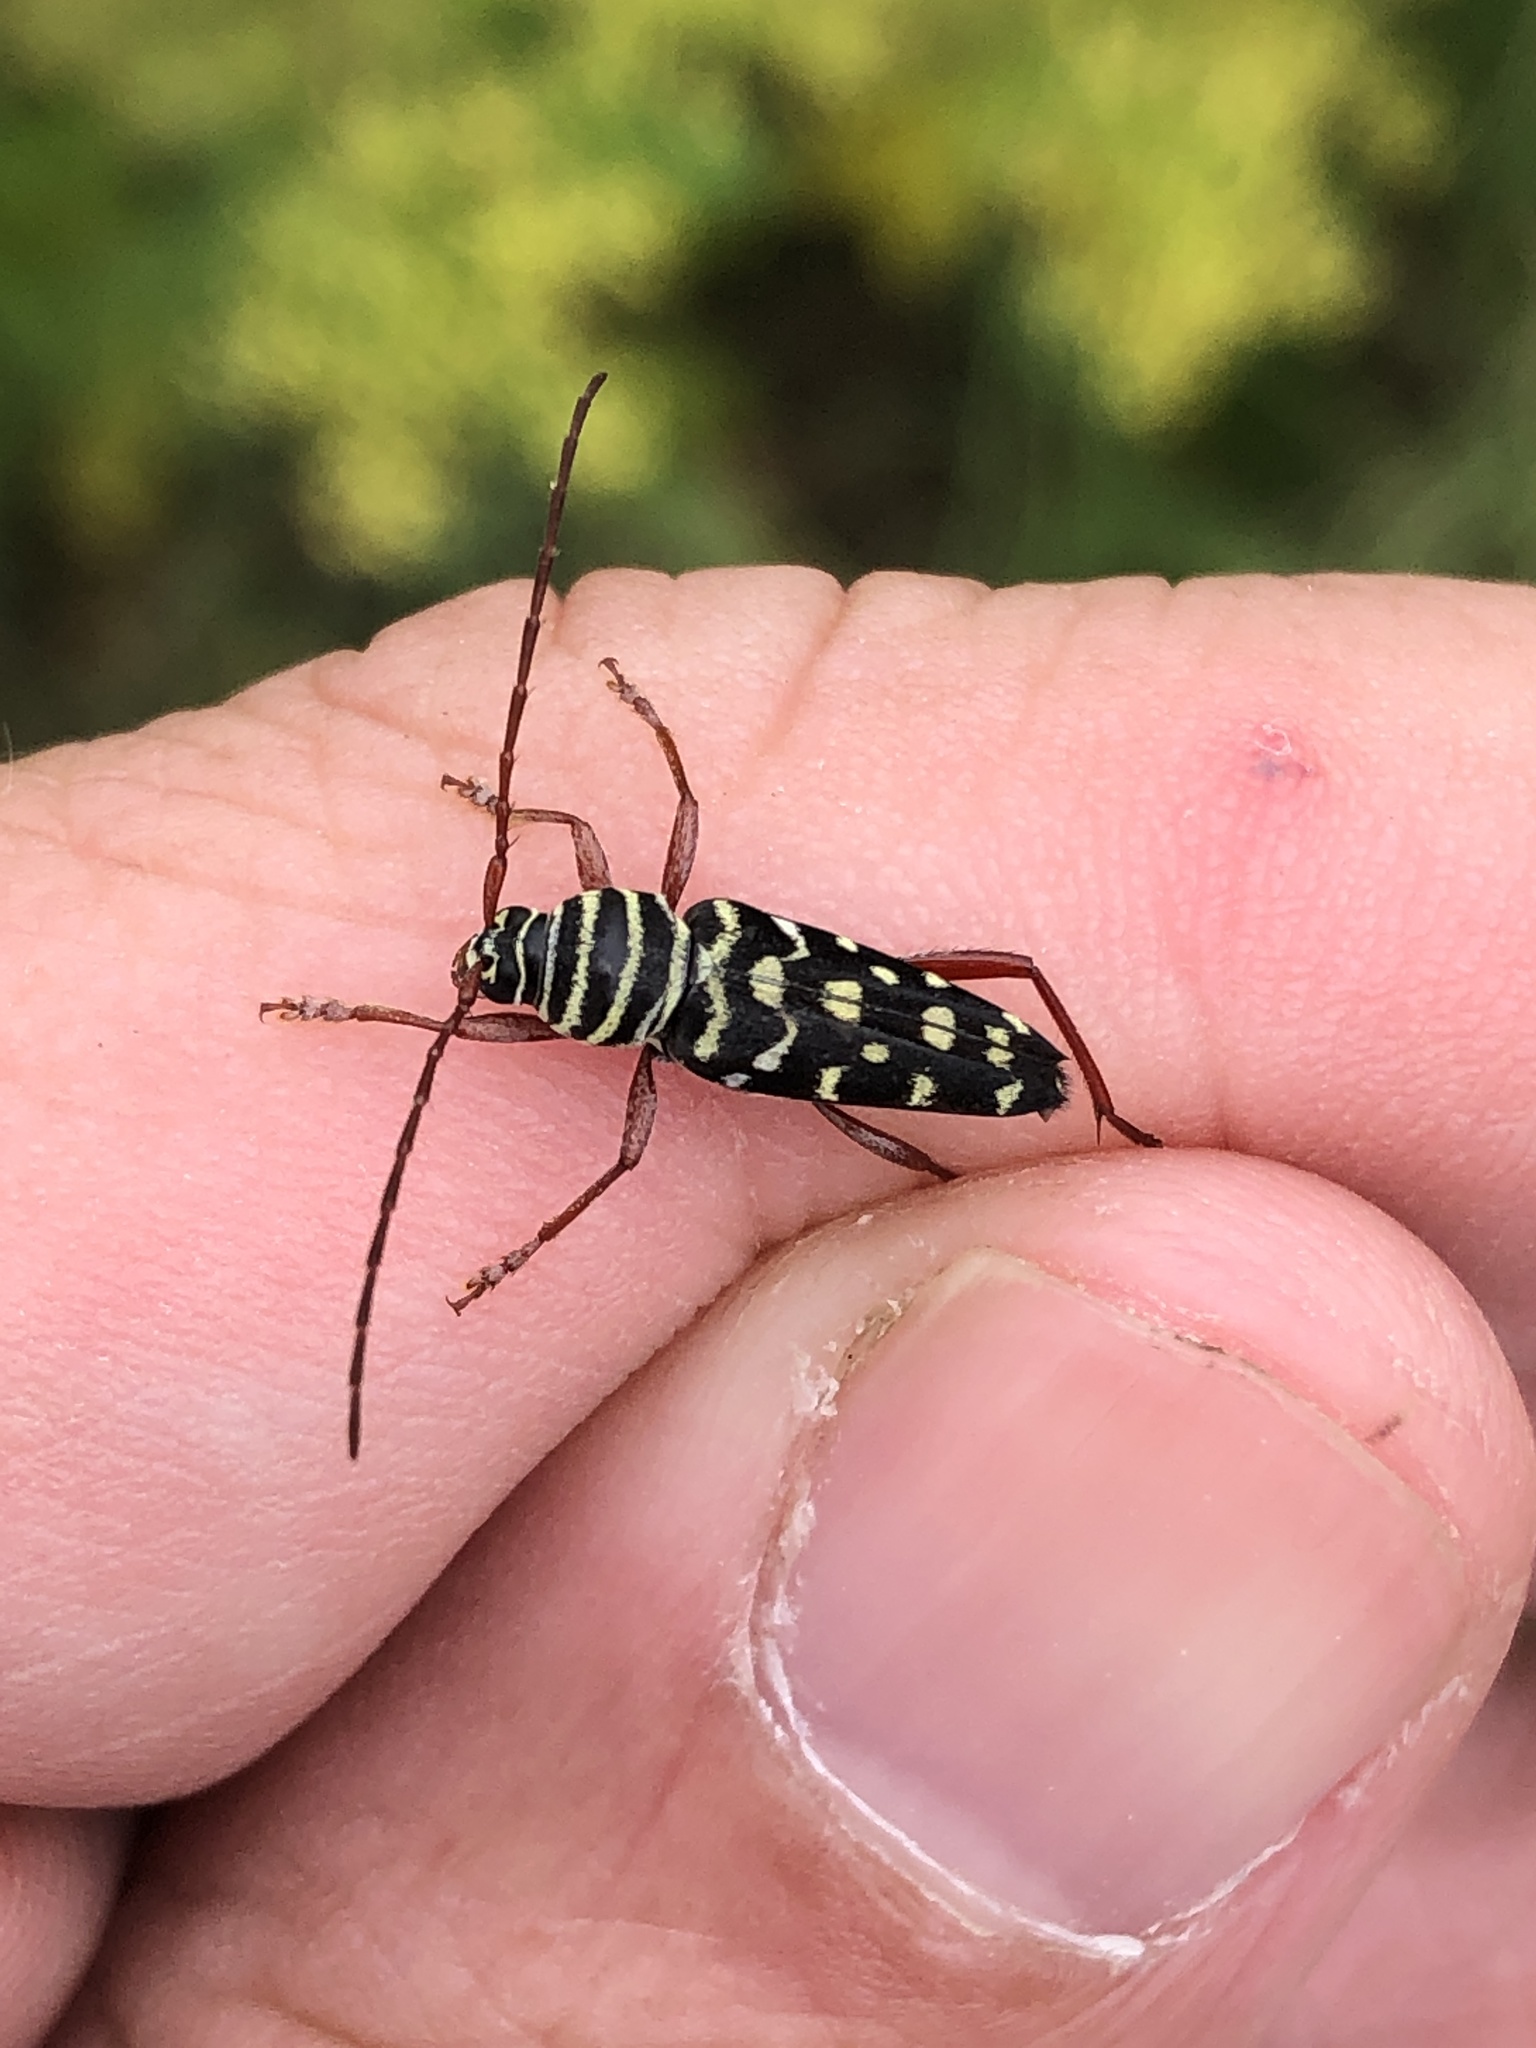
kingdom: Animalia
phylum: Arthropoda
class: Insecta
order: Coleoptera
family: Cerambycidae
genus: Placosternus
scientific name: Placosternus difficilis
